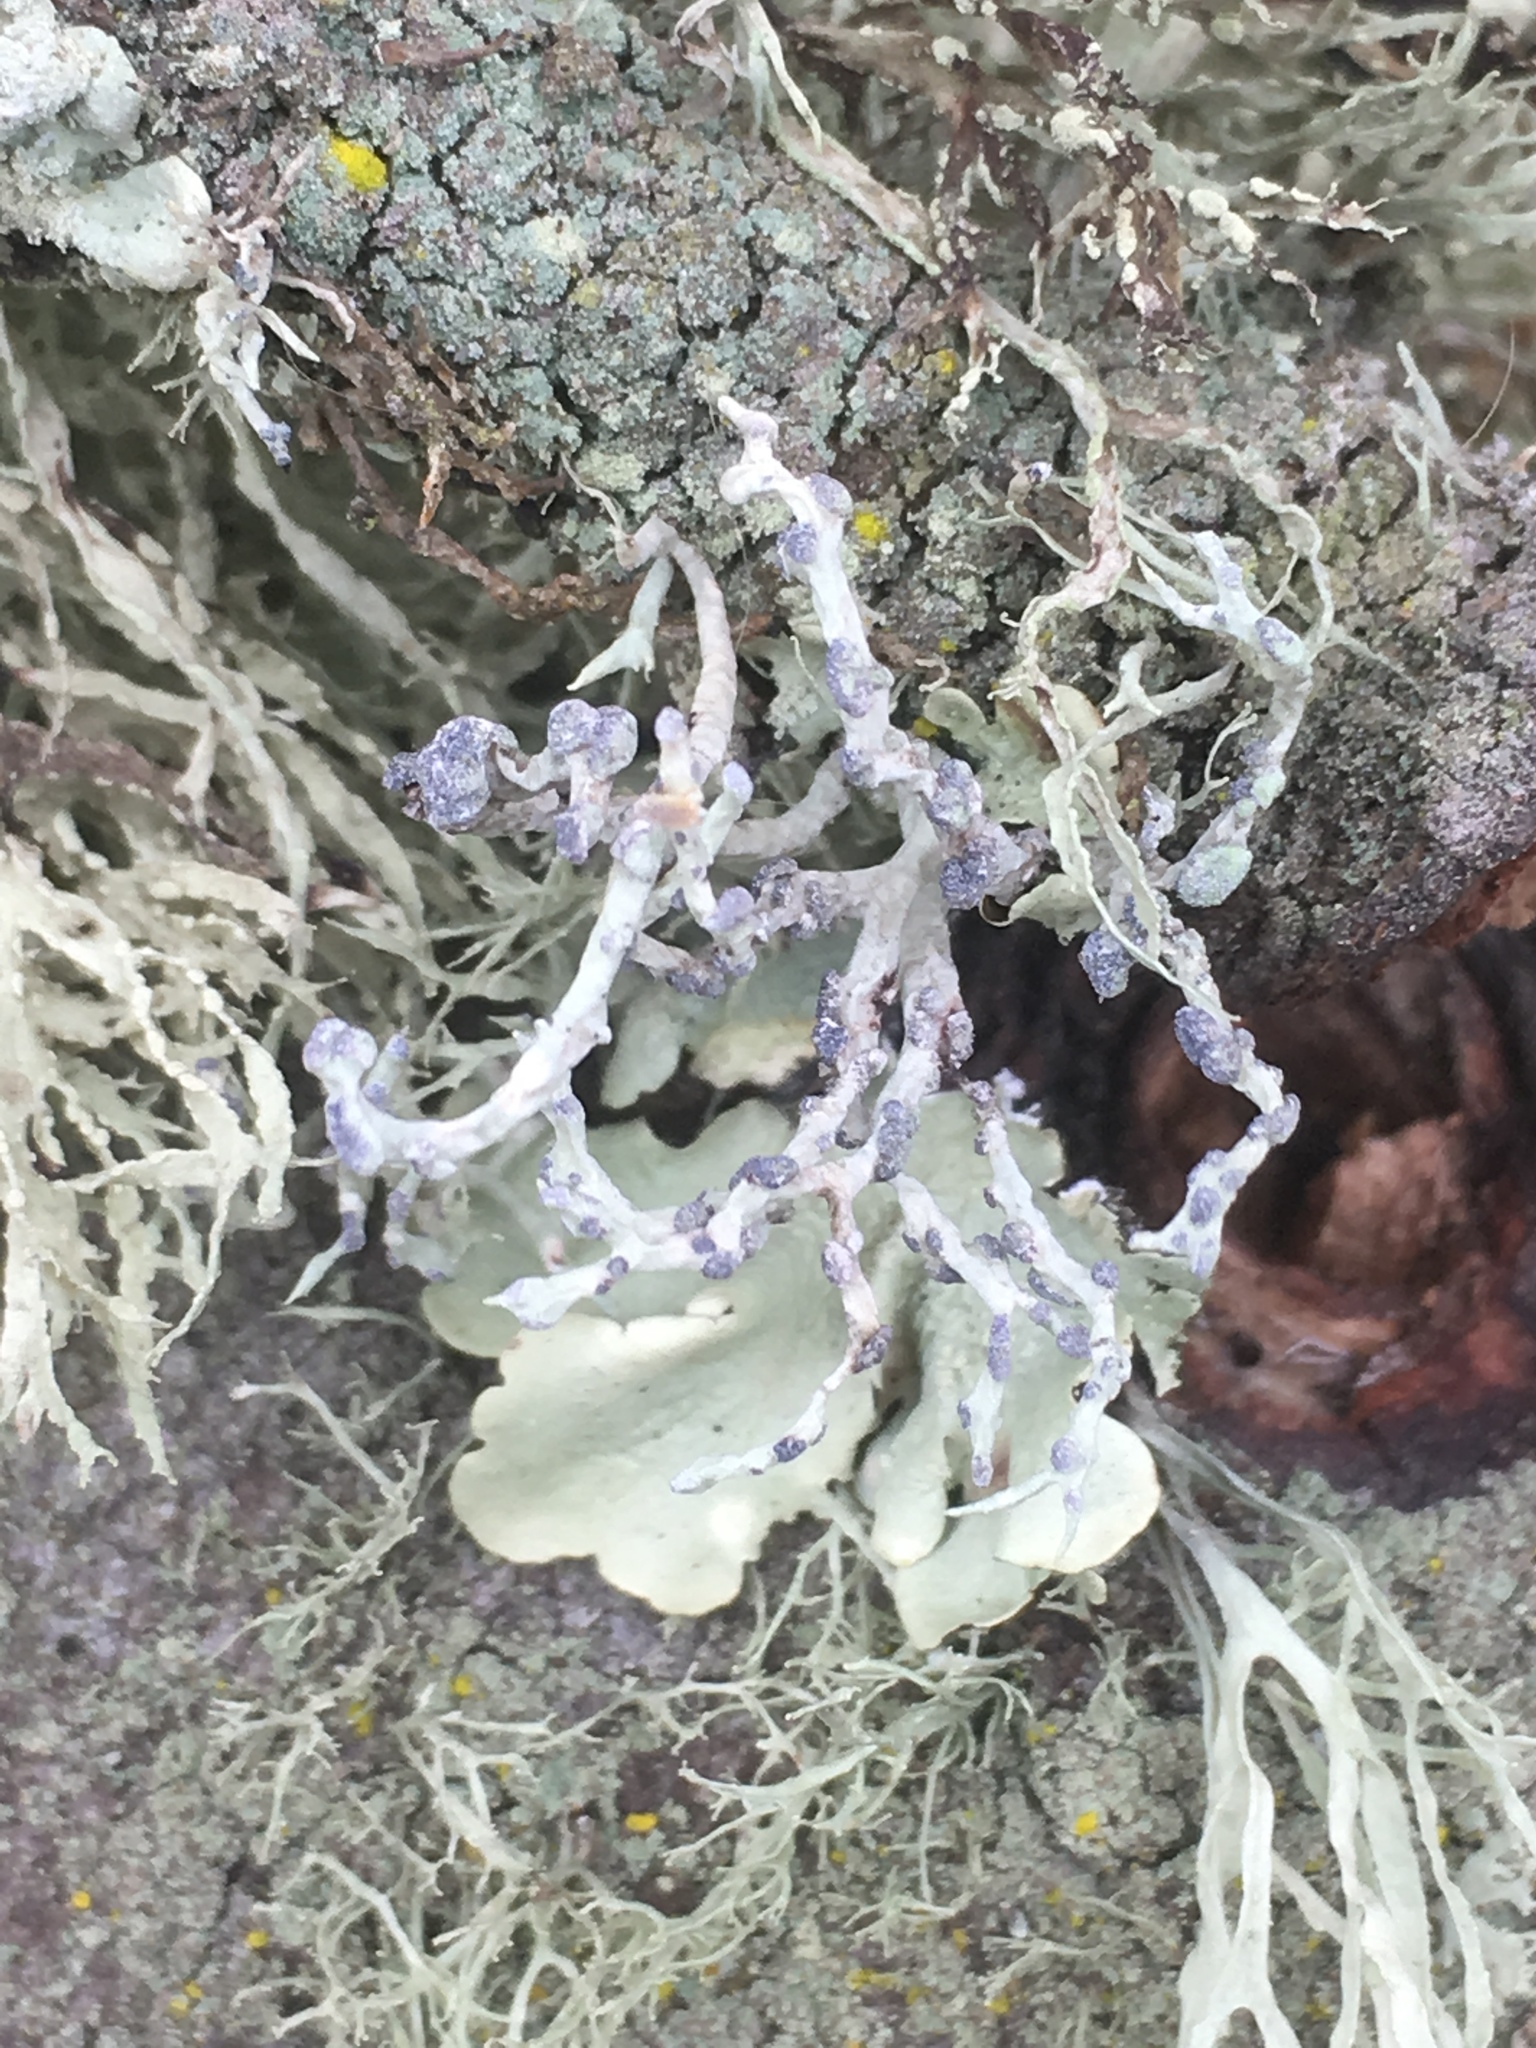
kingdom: Fungi
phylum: Ascomycota
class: Lecanoromycetes
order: Lecanorales
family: Ramalinaceae
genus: Niebla
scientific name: Niebla cephalota
